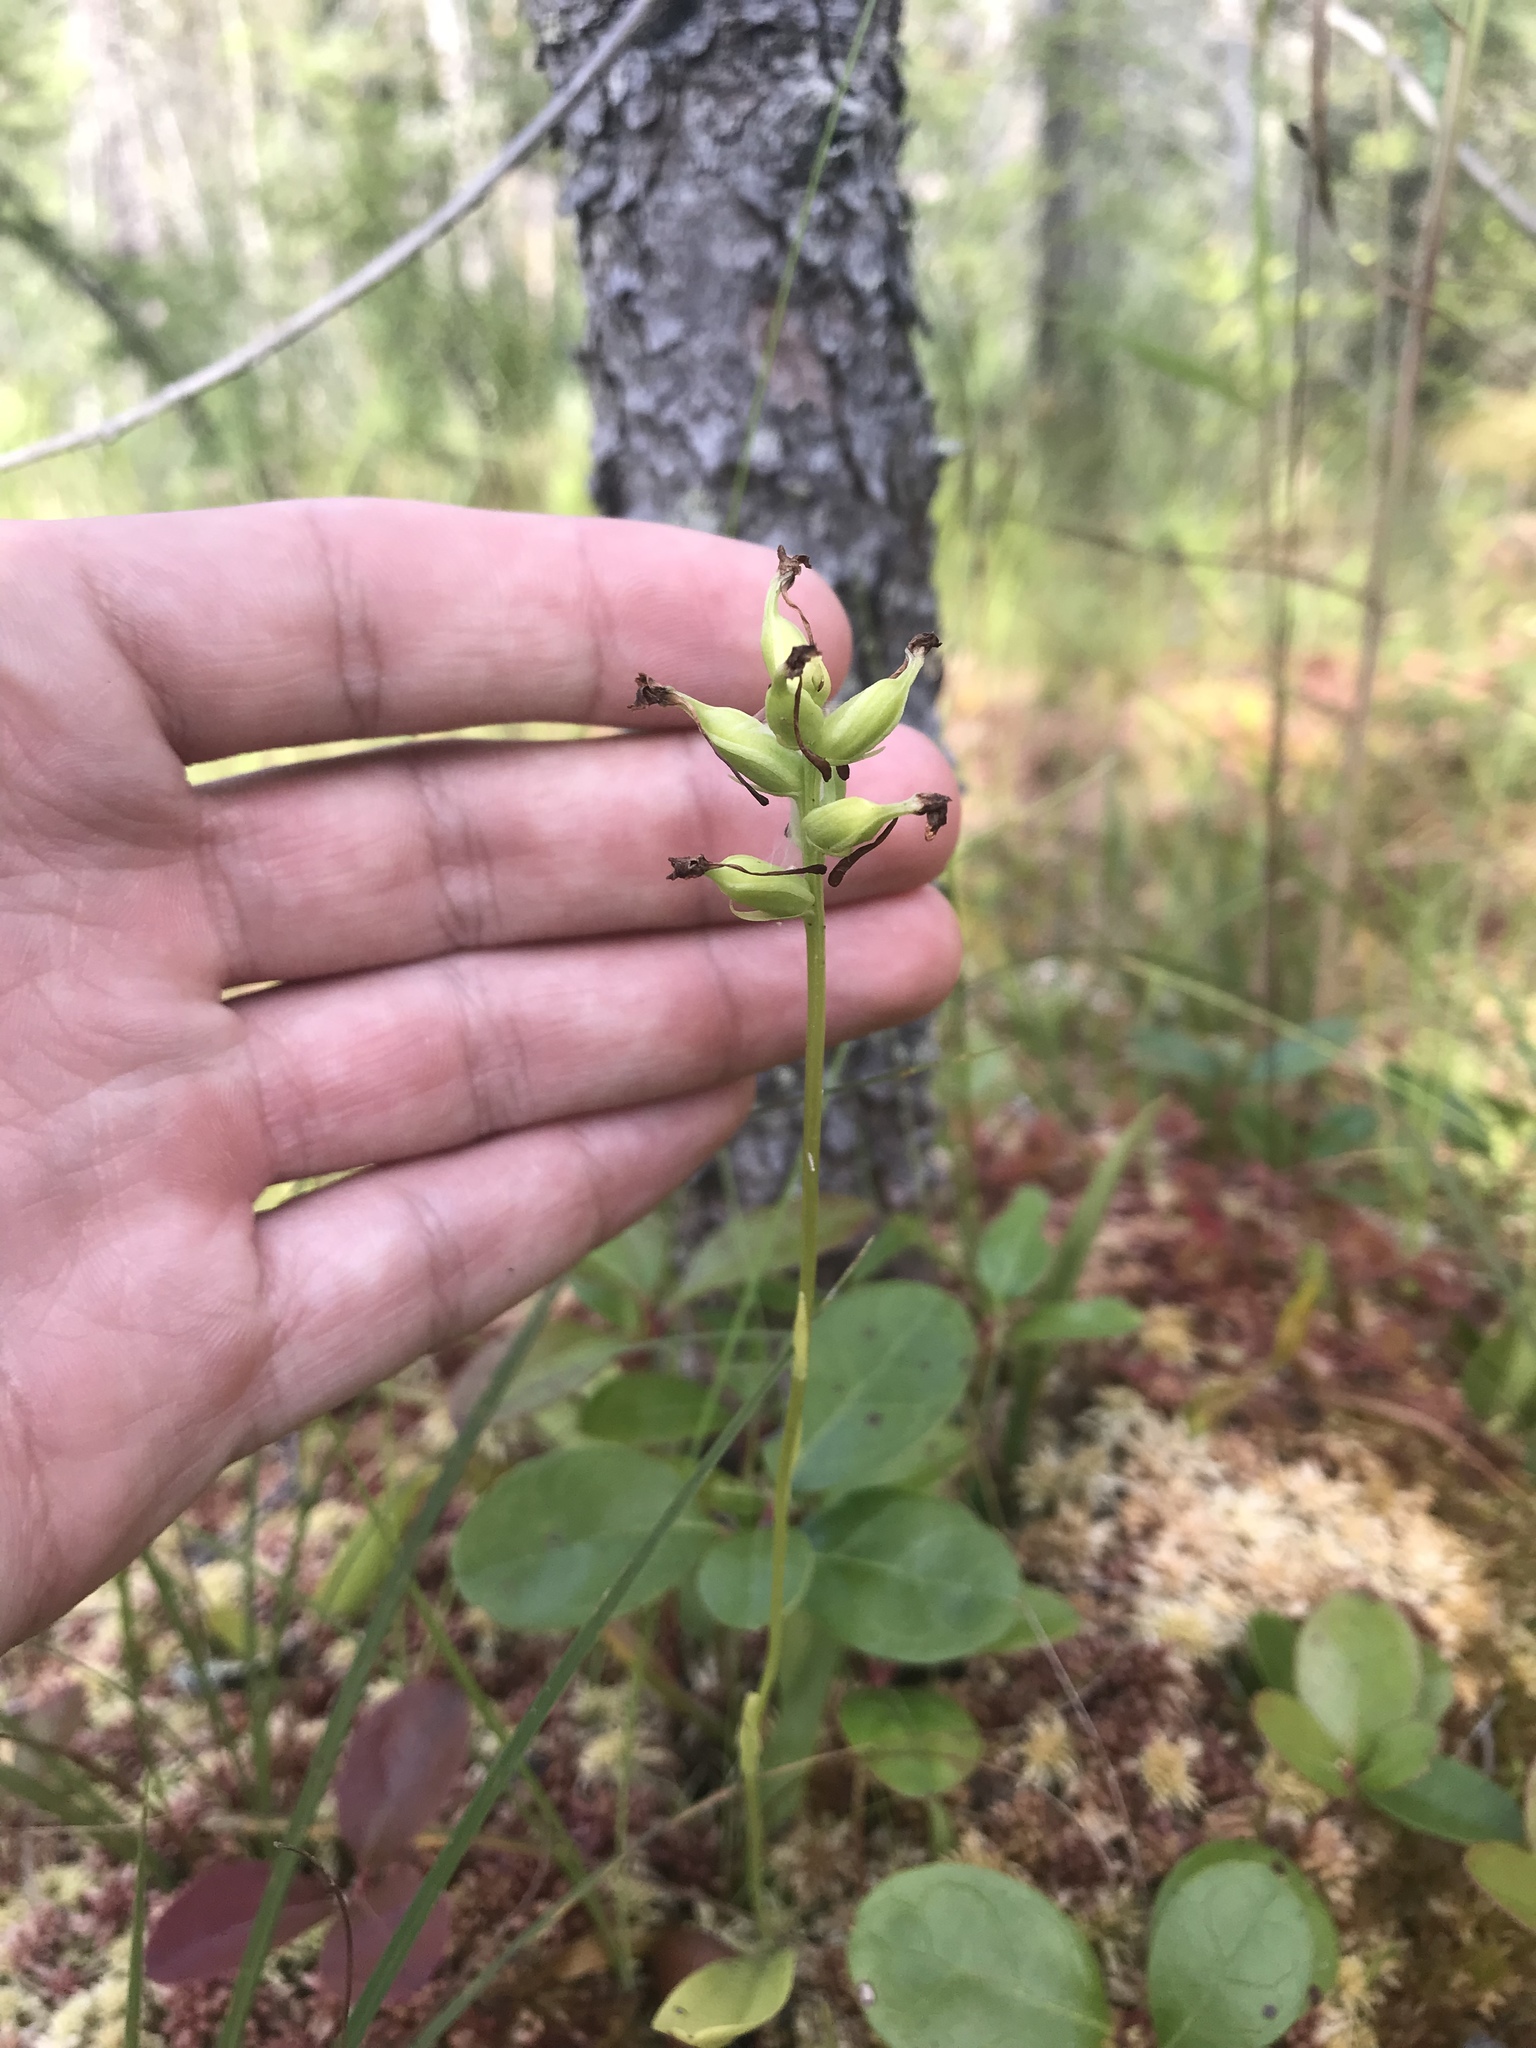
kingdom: Plantae
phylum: Tracheophyta
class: Liliopsida
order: Asparagales
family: Orchidaceae
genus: Platanthera
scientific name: Platanthera clavellata
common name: Club-spur orchid
